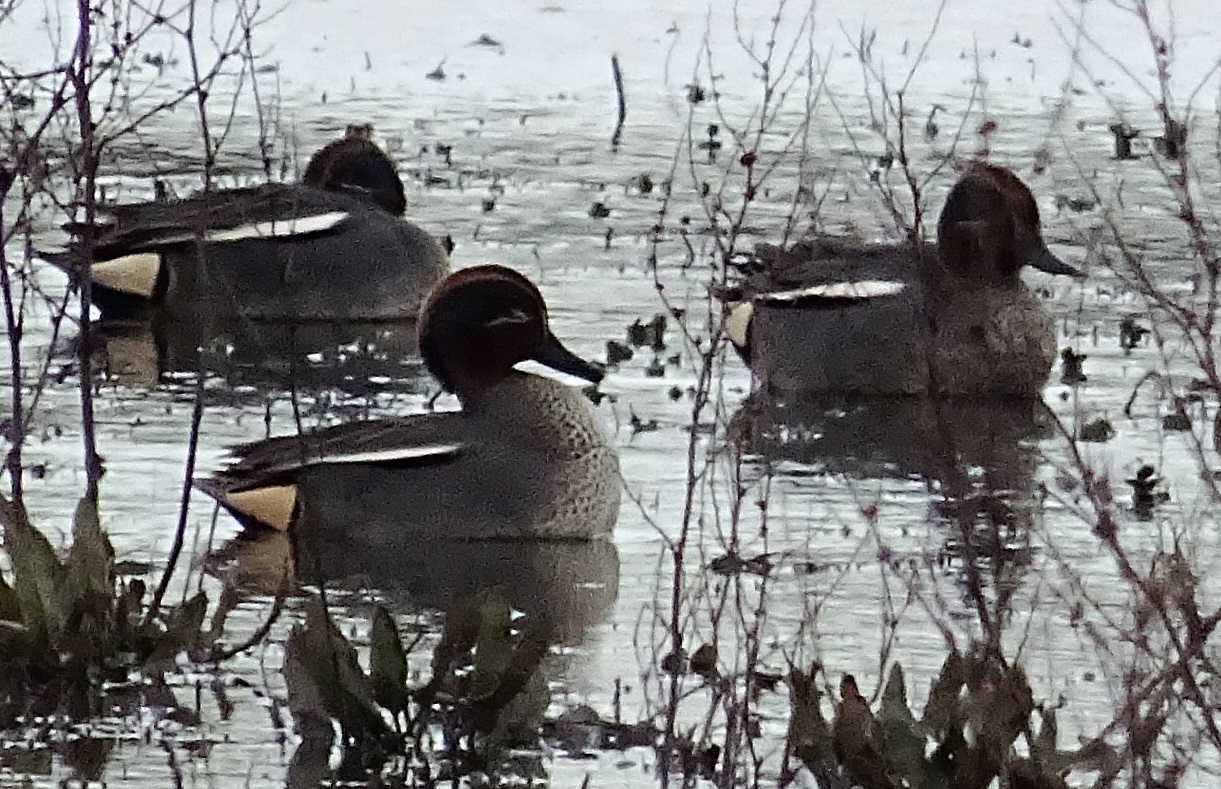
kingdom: Animalia
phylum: Chordata
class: Aves
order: Anseriformes
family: Anatidae
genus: Anas
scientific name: Anas crecca
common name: Eurasian teal
